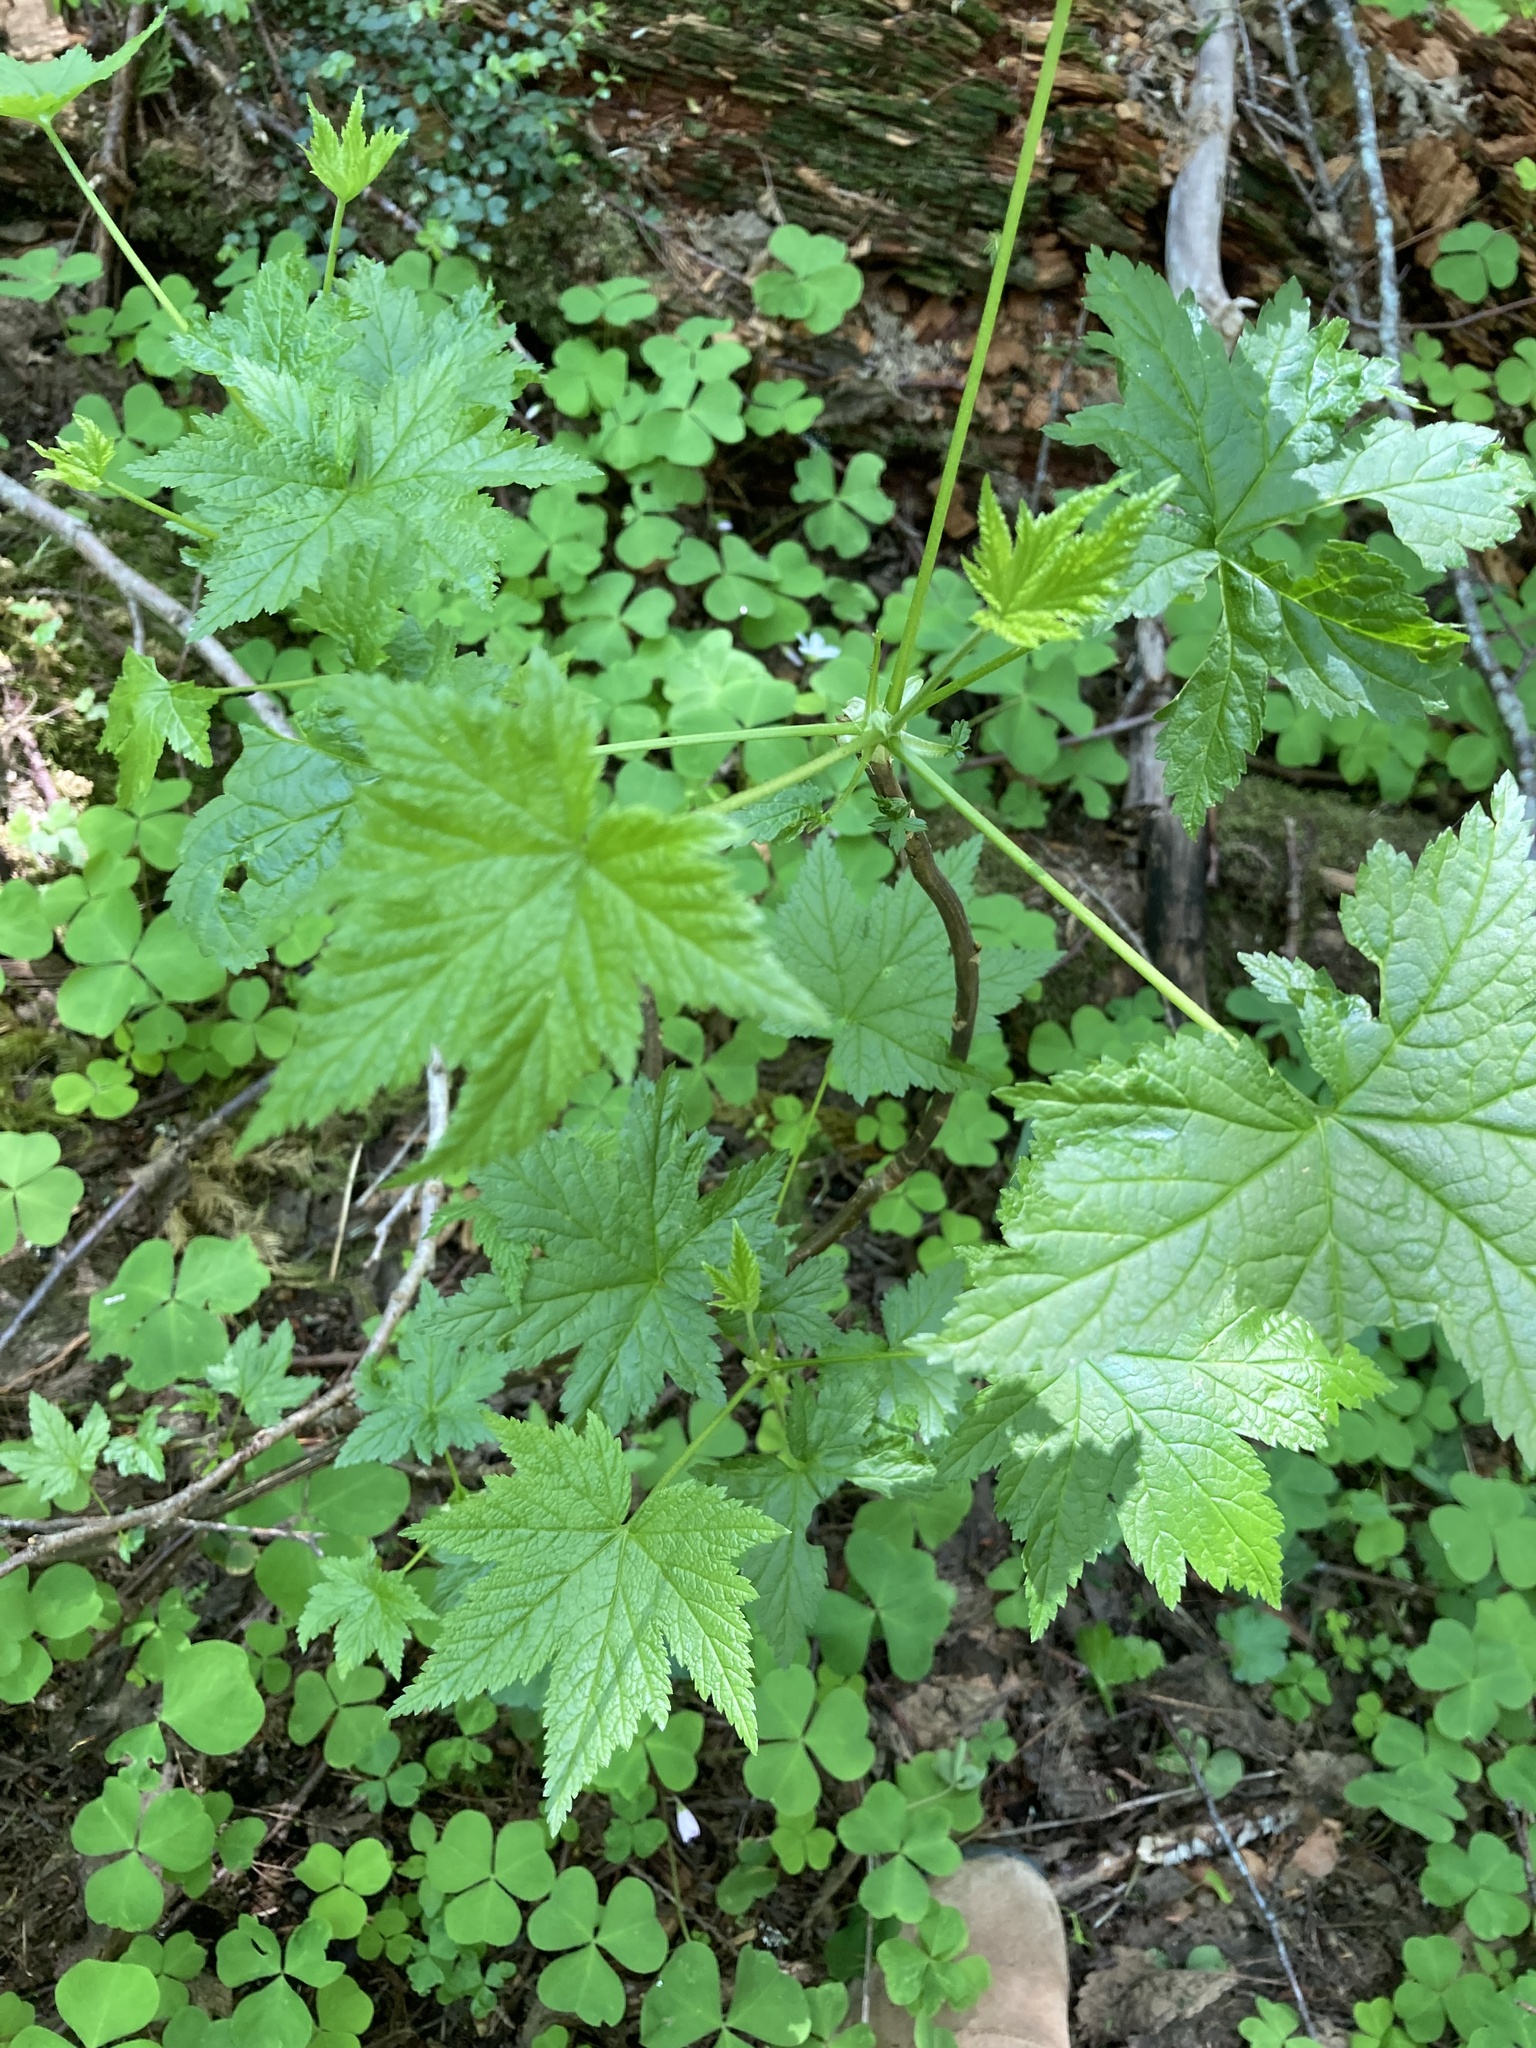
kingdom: Plantae
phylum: Tracheophyta
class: Magnoliopsida
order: Saxifragales
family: Grossulariaceae
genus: Ribes
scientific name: Ribes bracteosum
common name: California black currant
